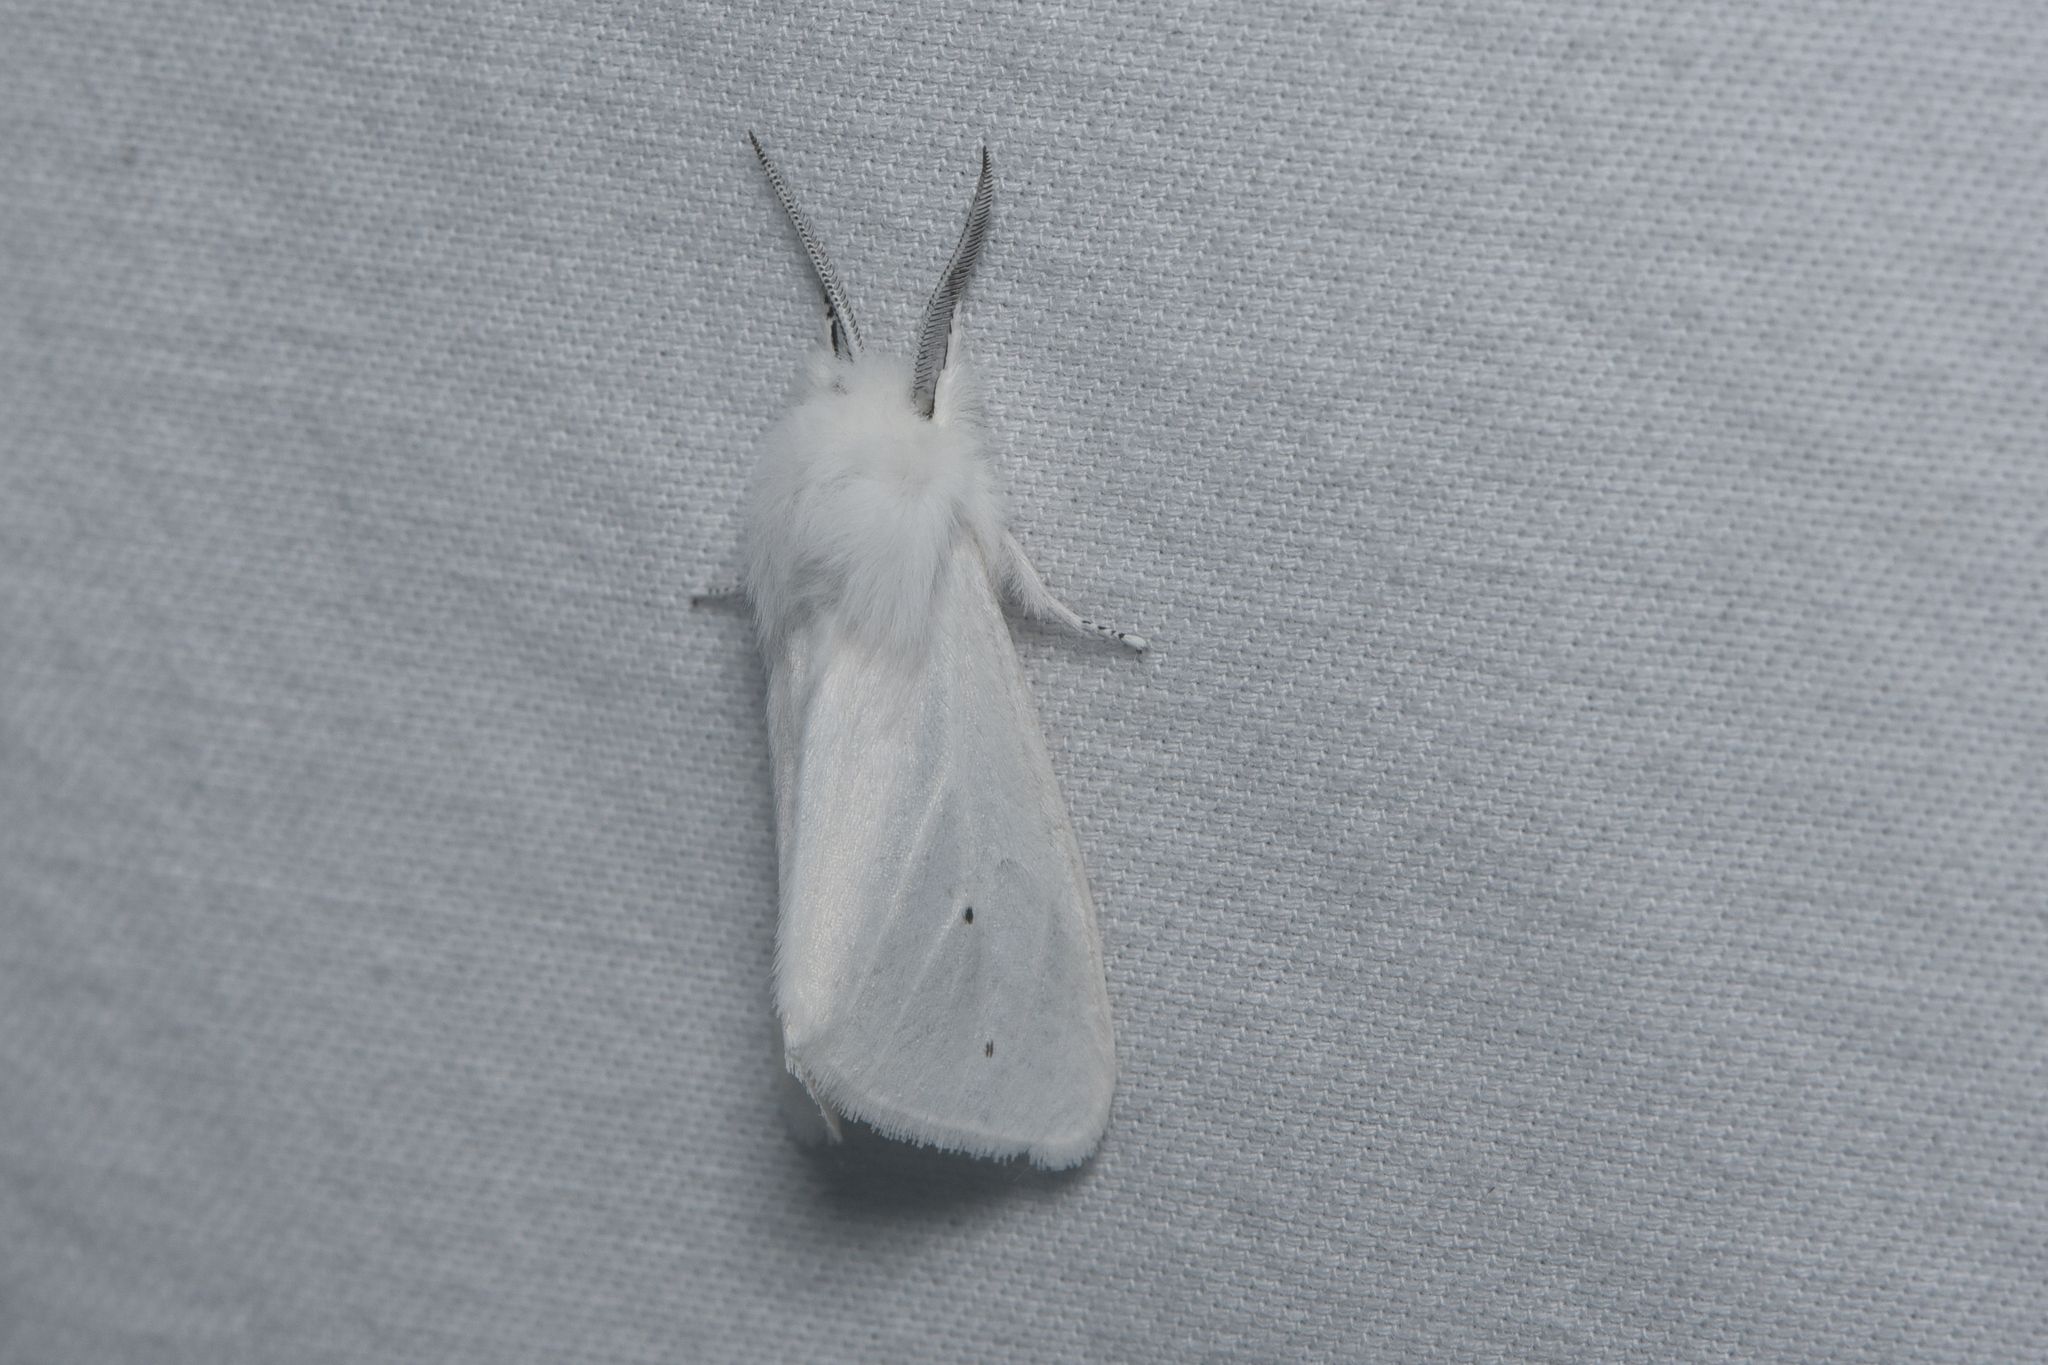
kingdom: Animalia
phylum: Arthropoda
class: Insecta
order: Lepidoptera
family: Erebidae
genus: Spilosoma
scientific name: Spilosoma virginica
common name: Virginia tiger moth
